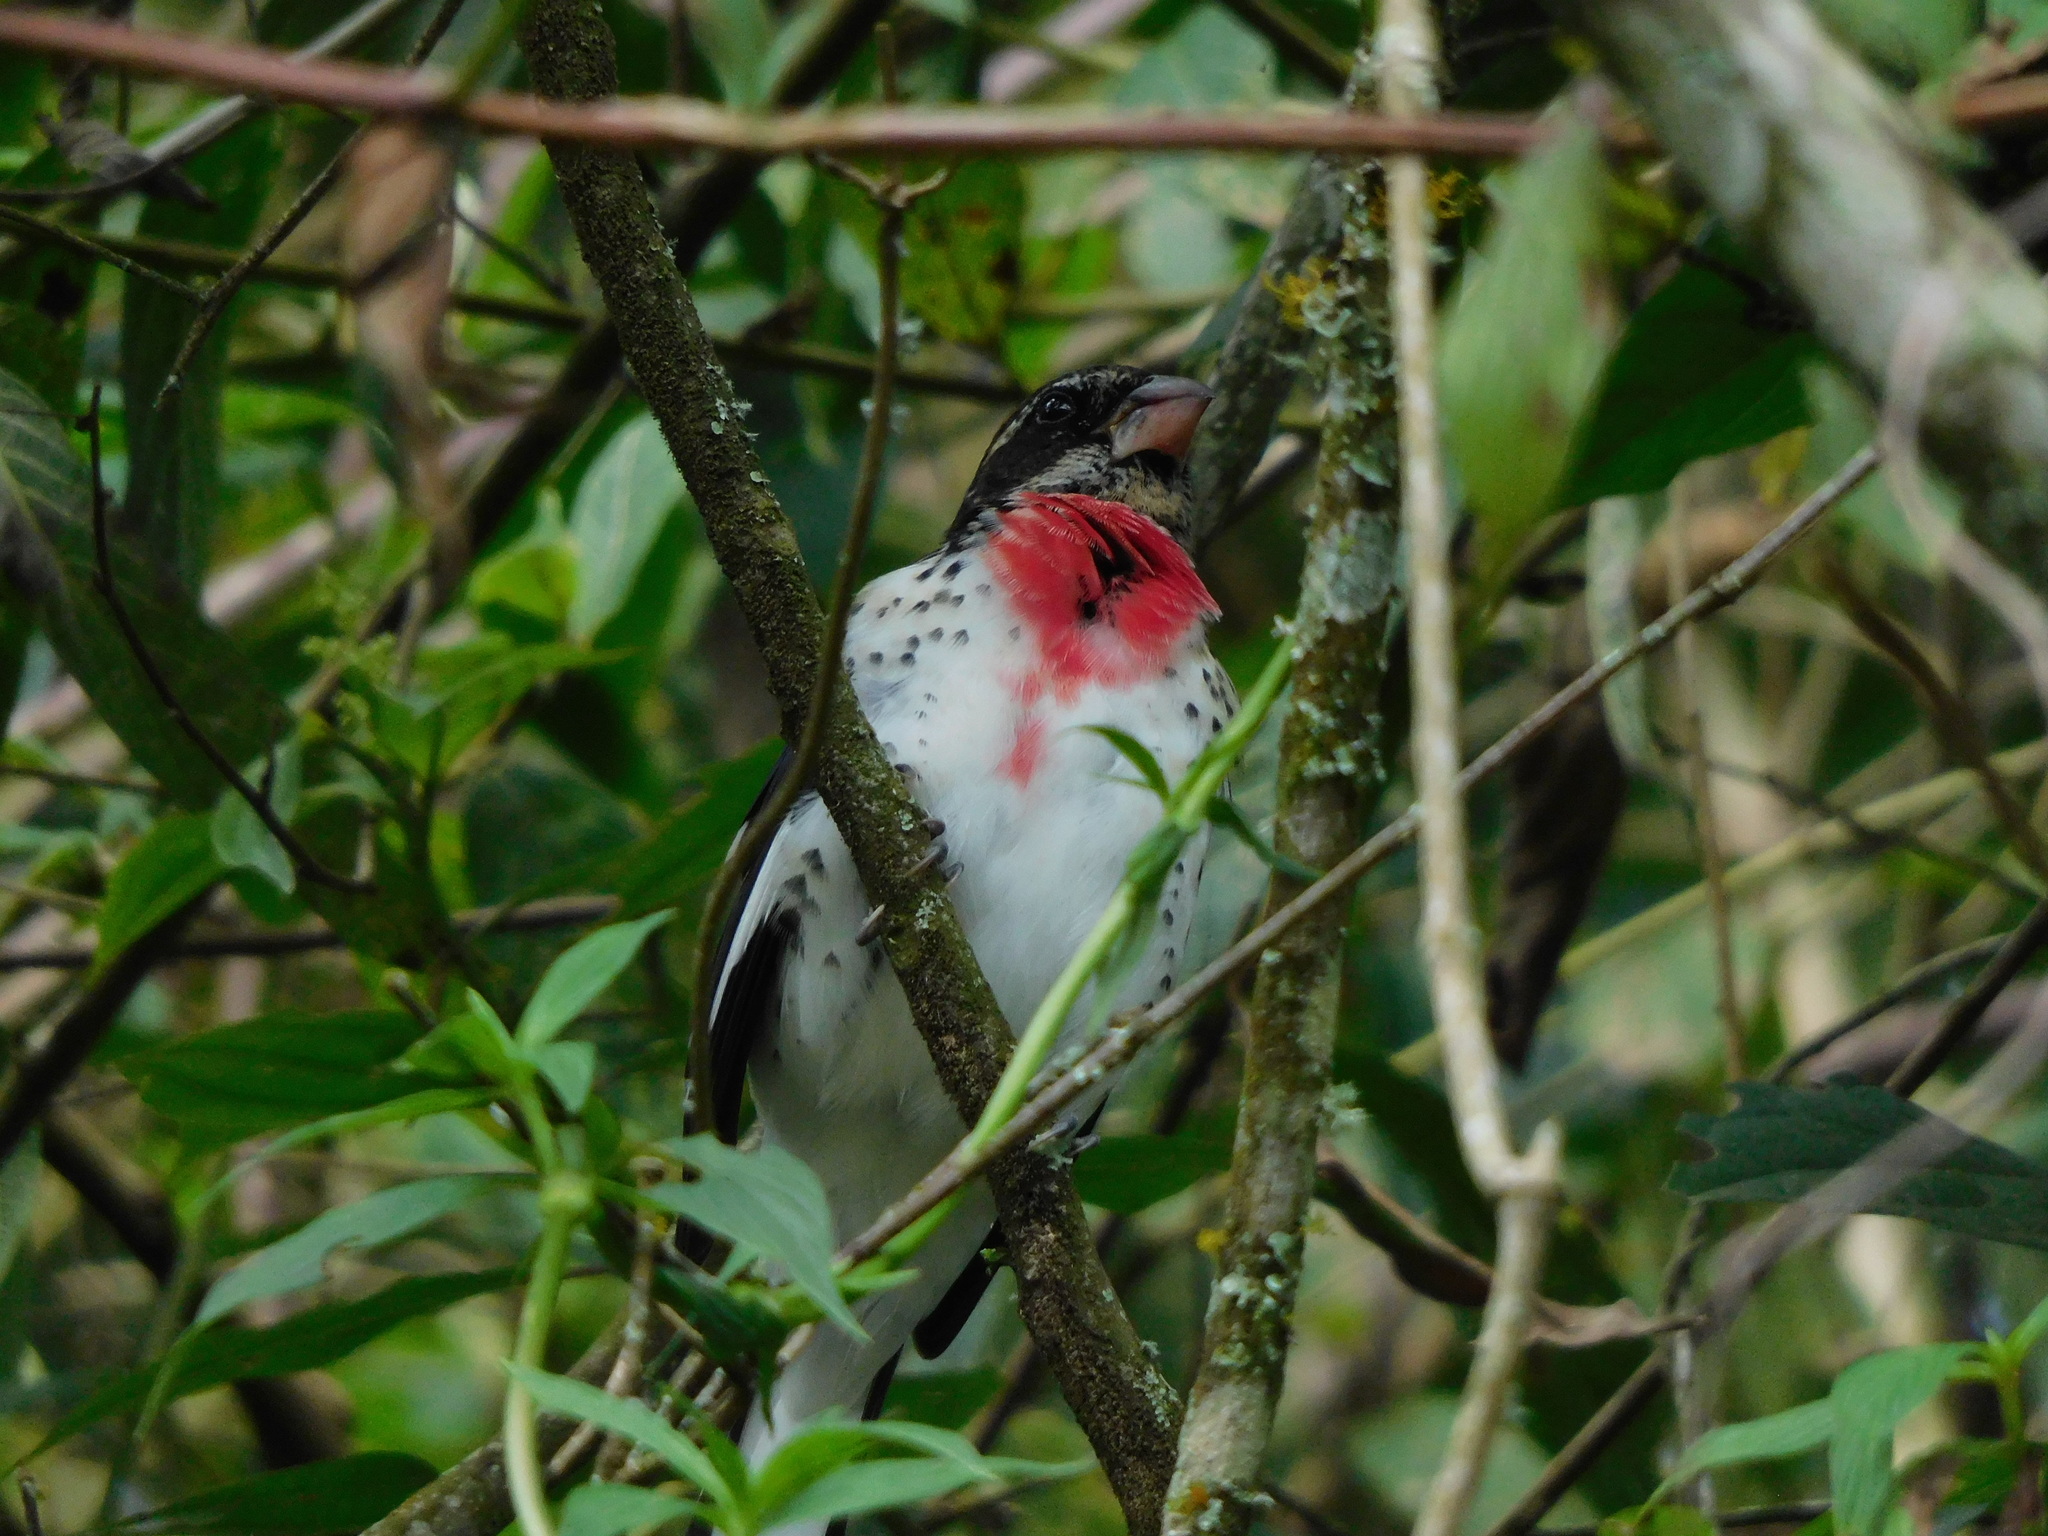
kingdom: Animalia
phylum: Chordata
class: Aves
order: Passeriformes
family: Cardinalidae
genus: Pheucticus
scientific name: Pheucticus ludovicianus
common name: Rose-breasted grosbeak
